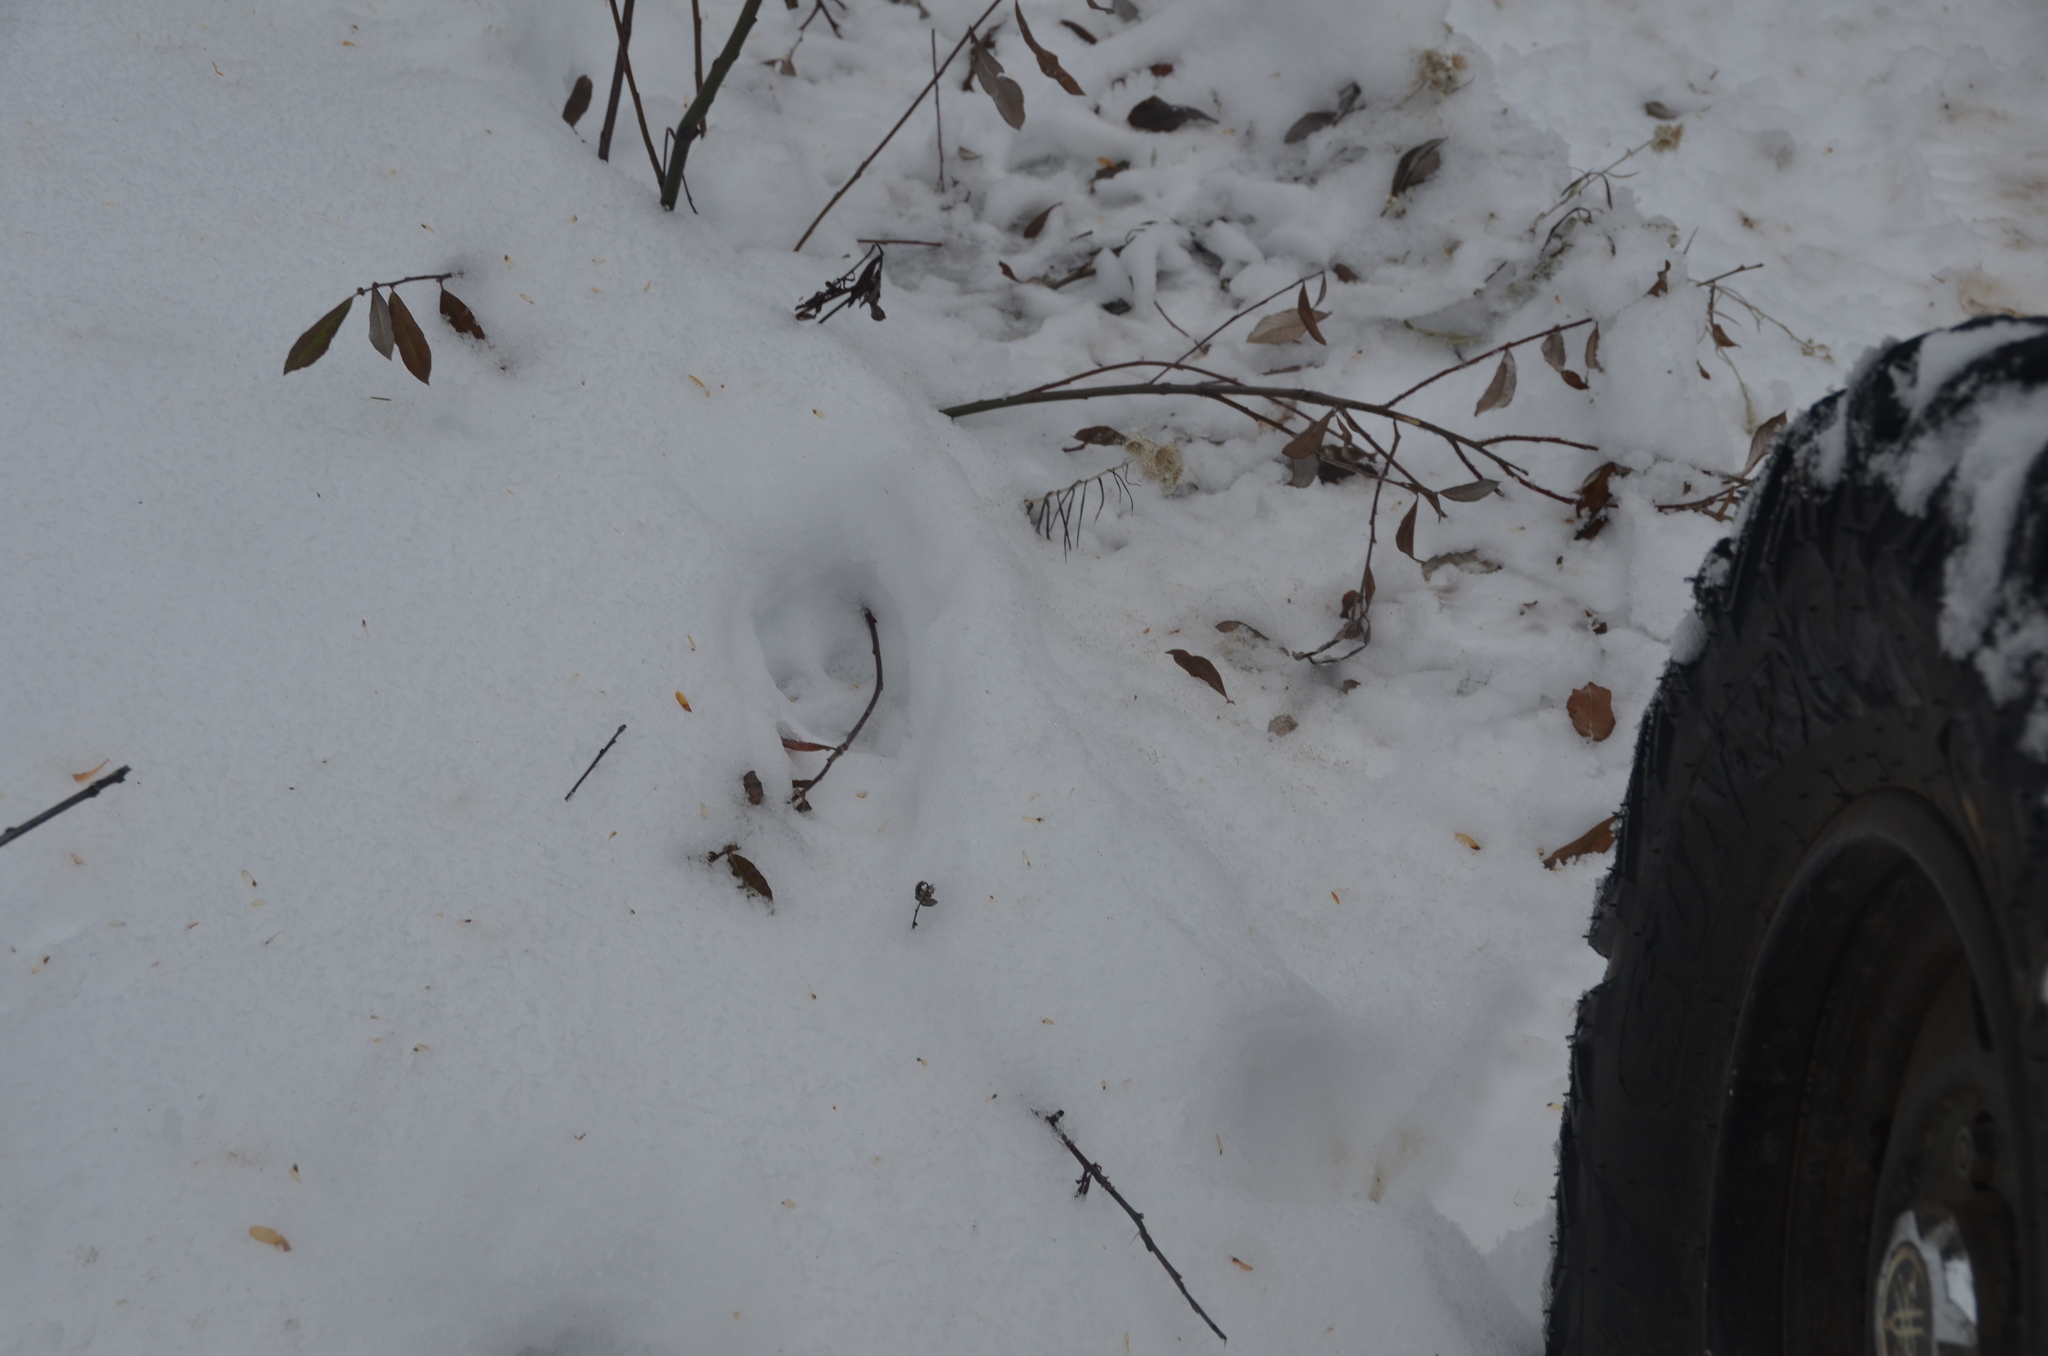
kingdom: Animalia
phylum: Chordata
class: Mammalia
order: Carnivora
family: Felidae
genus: Puma
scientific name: Puma concolor
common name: Puma
